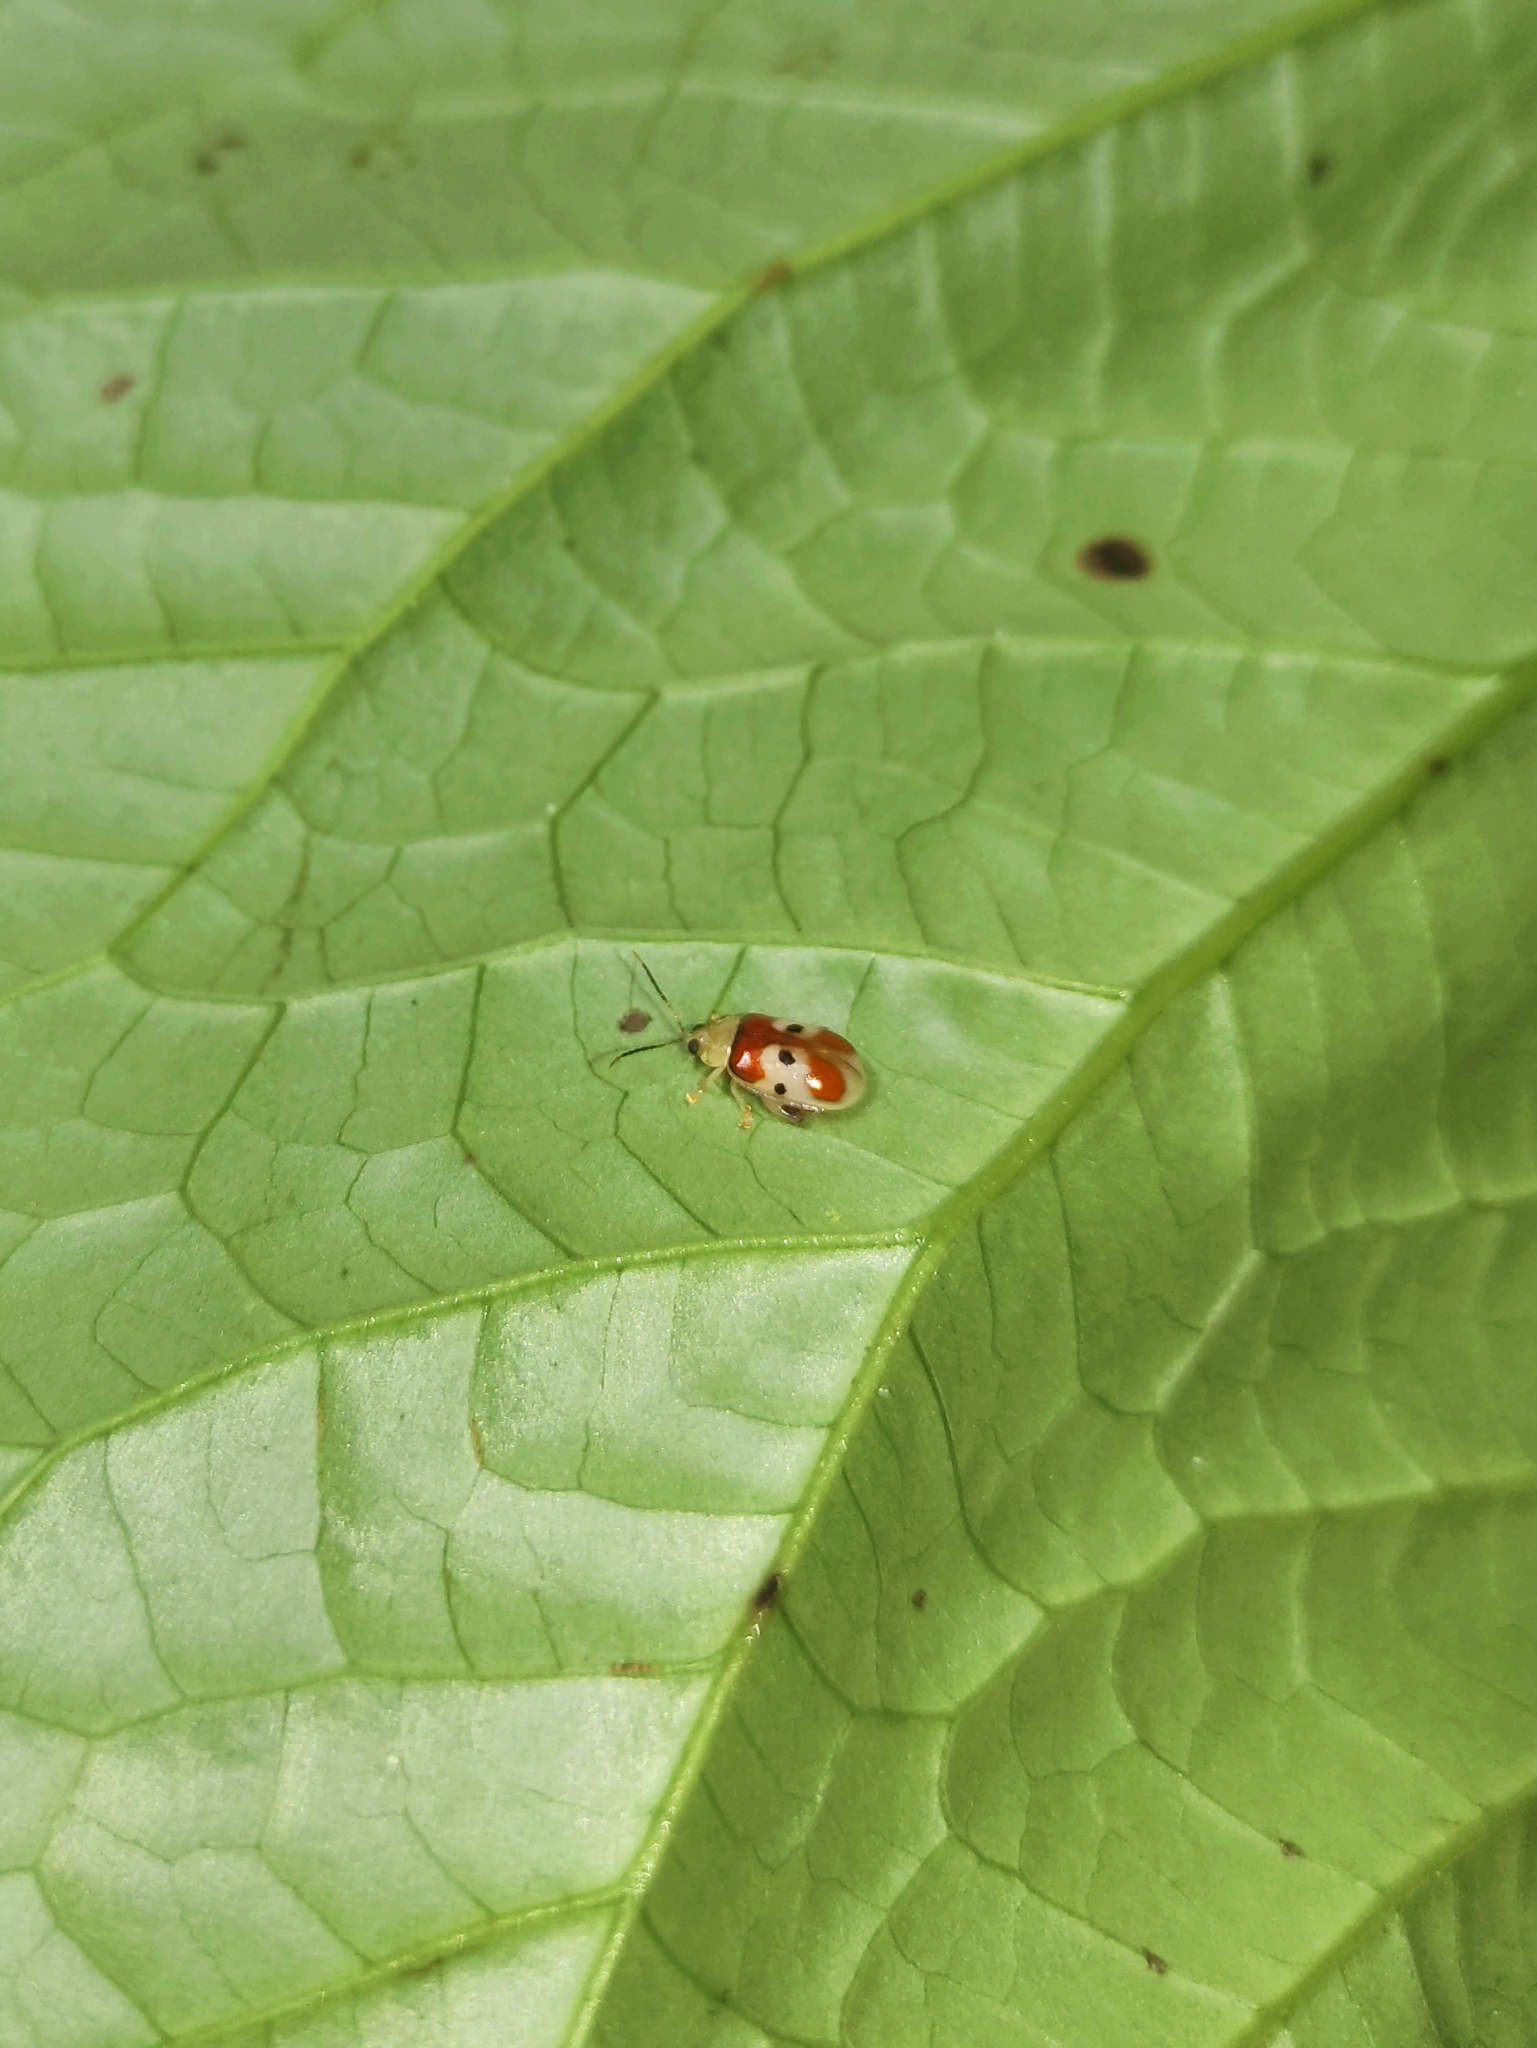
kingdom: Animalia
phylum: Arthropoda
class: Insecta
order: Coleoptera
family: Chrysomelidae
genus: Walterianella
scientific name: Walterianella
